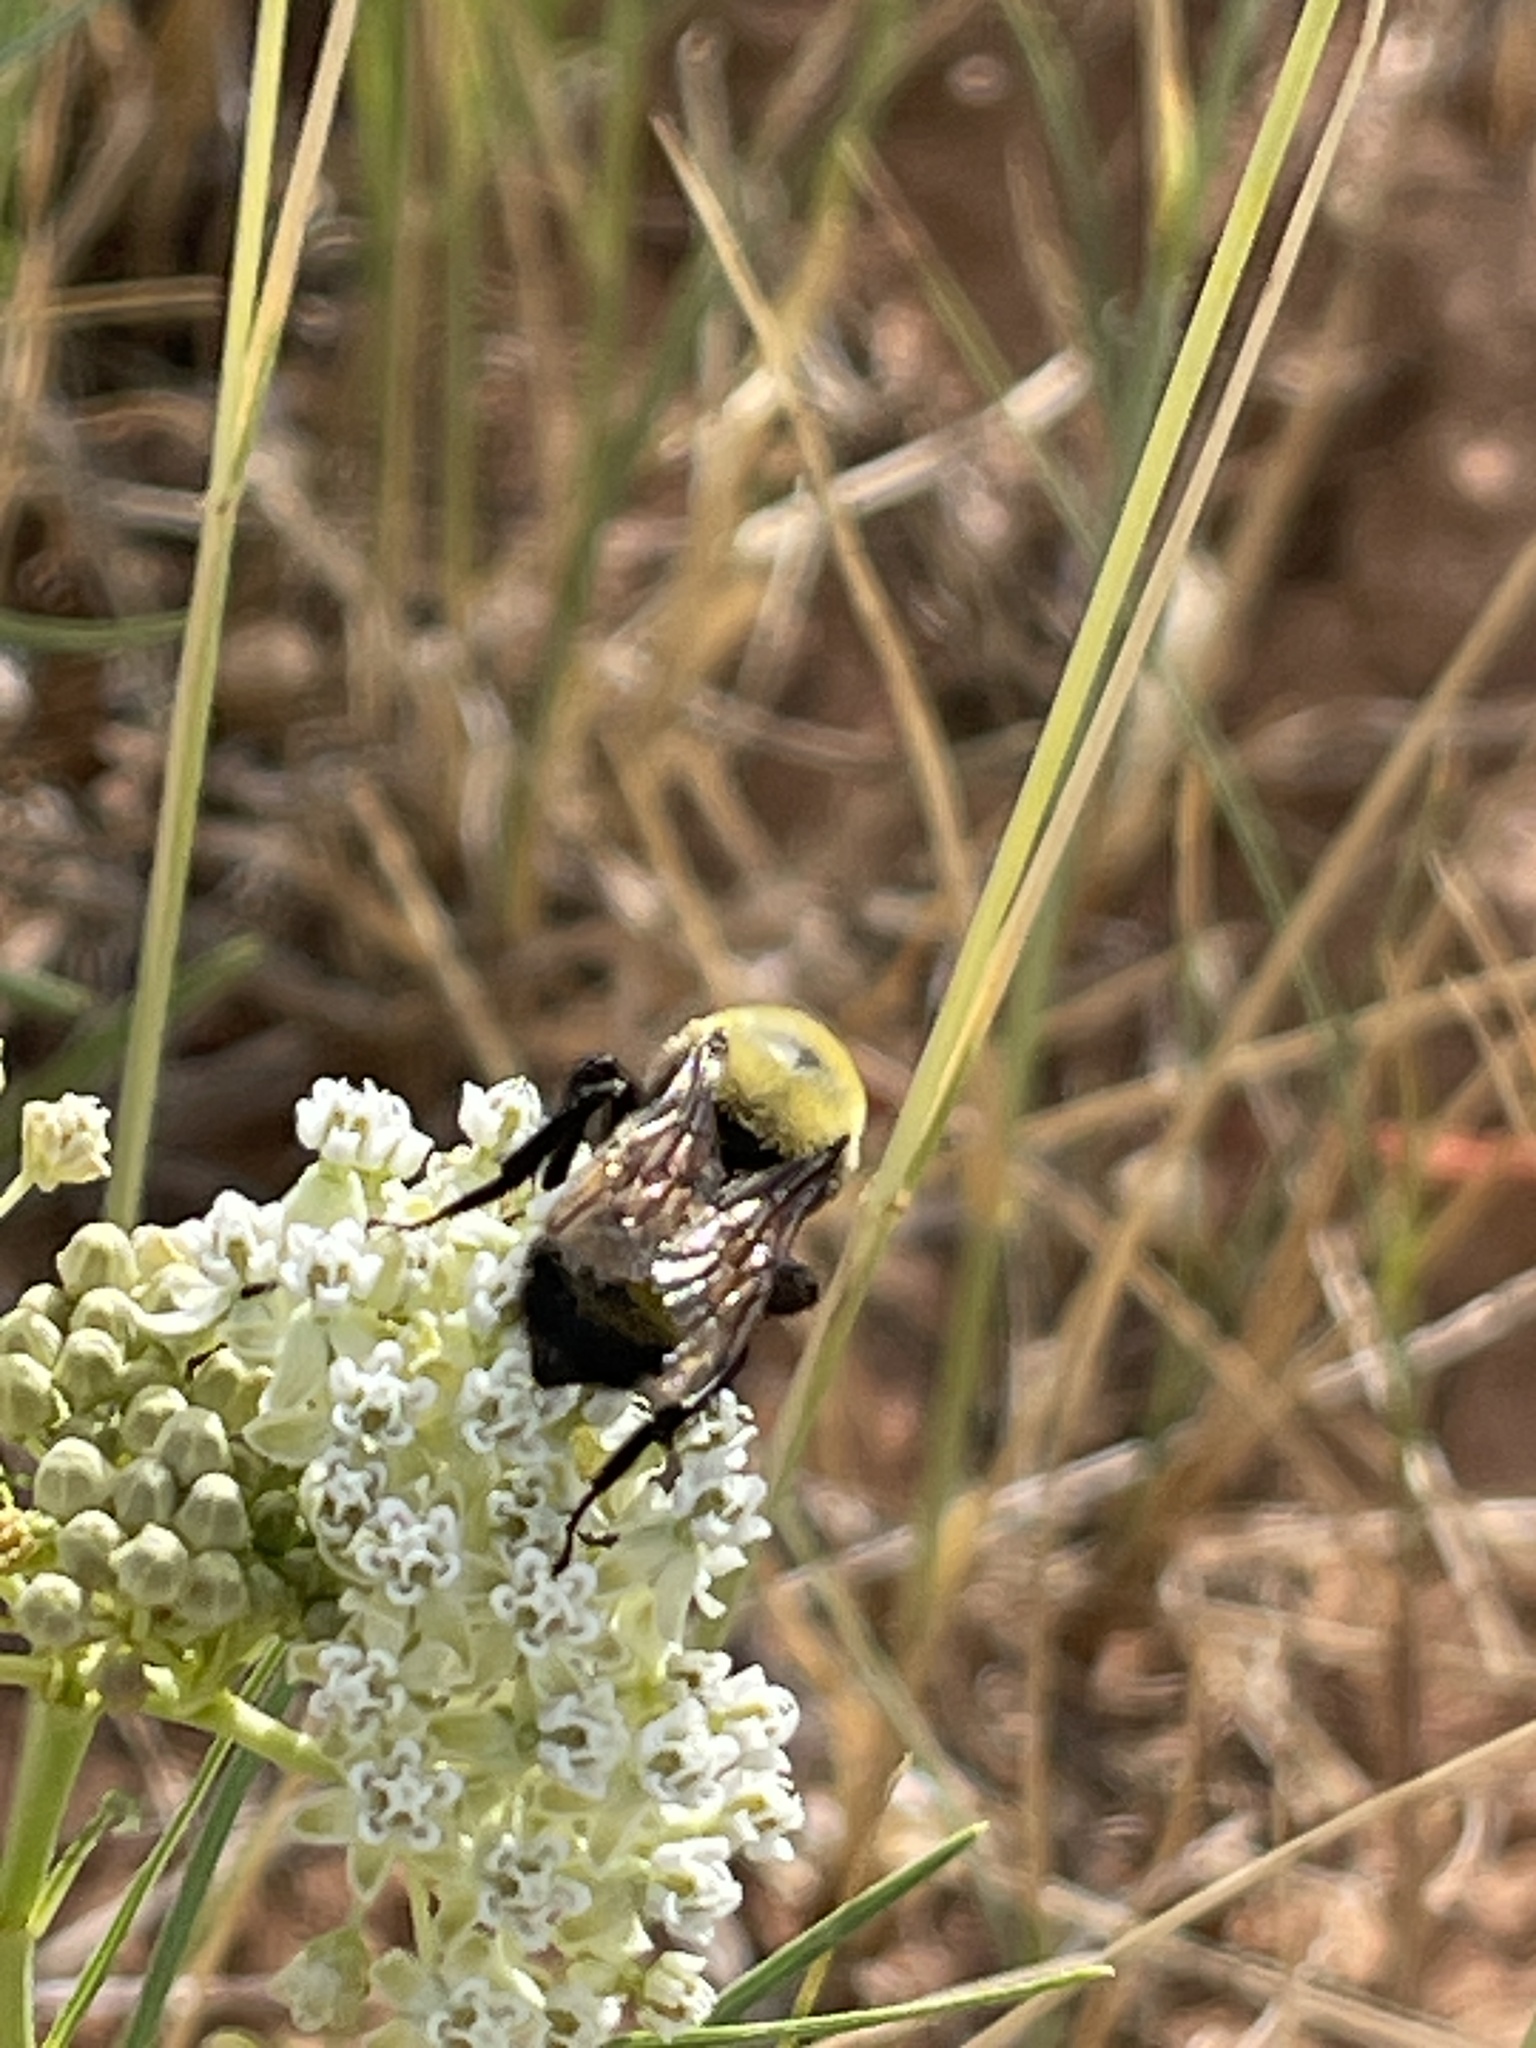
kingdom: Animalia
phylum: Arthropoda
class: Insecta
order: Hymenoptera
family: Apidae
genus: Bombus
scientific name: Bombus morrisoni
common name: Morrison bumble bee
